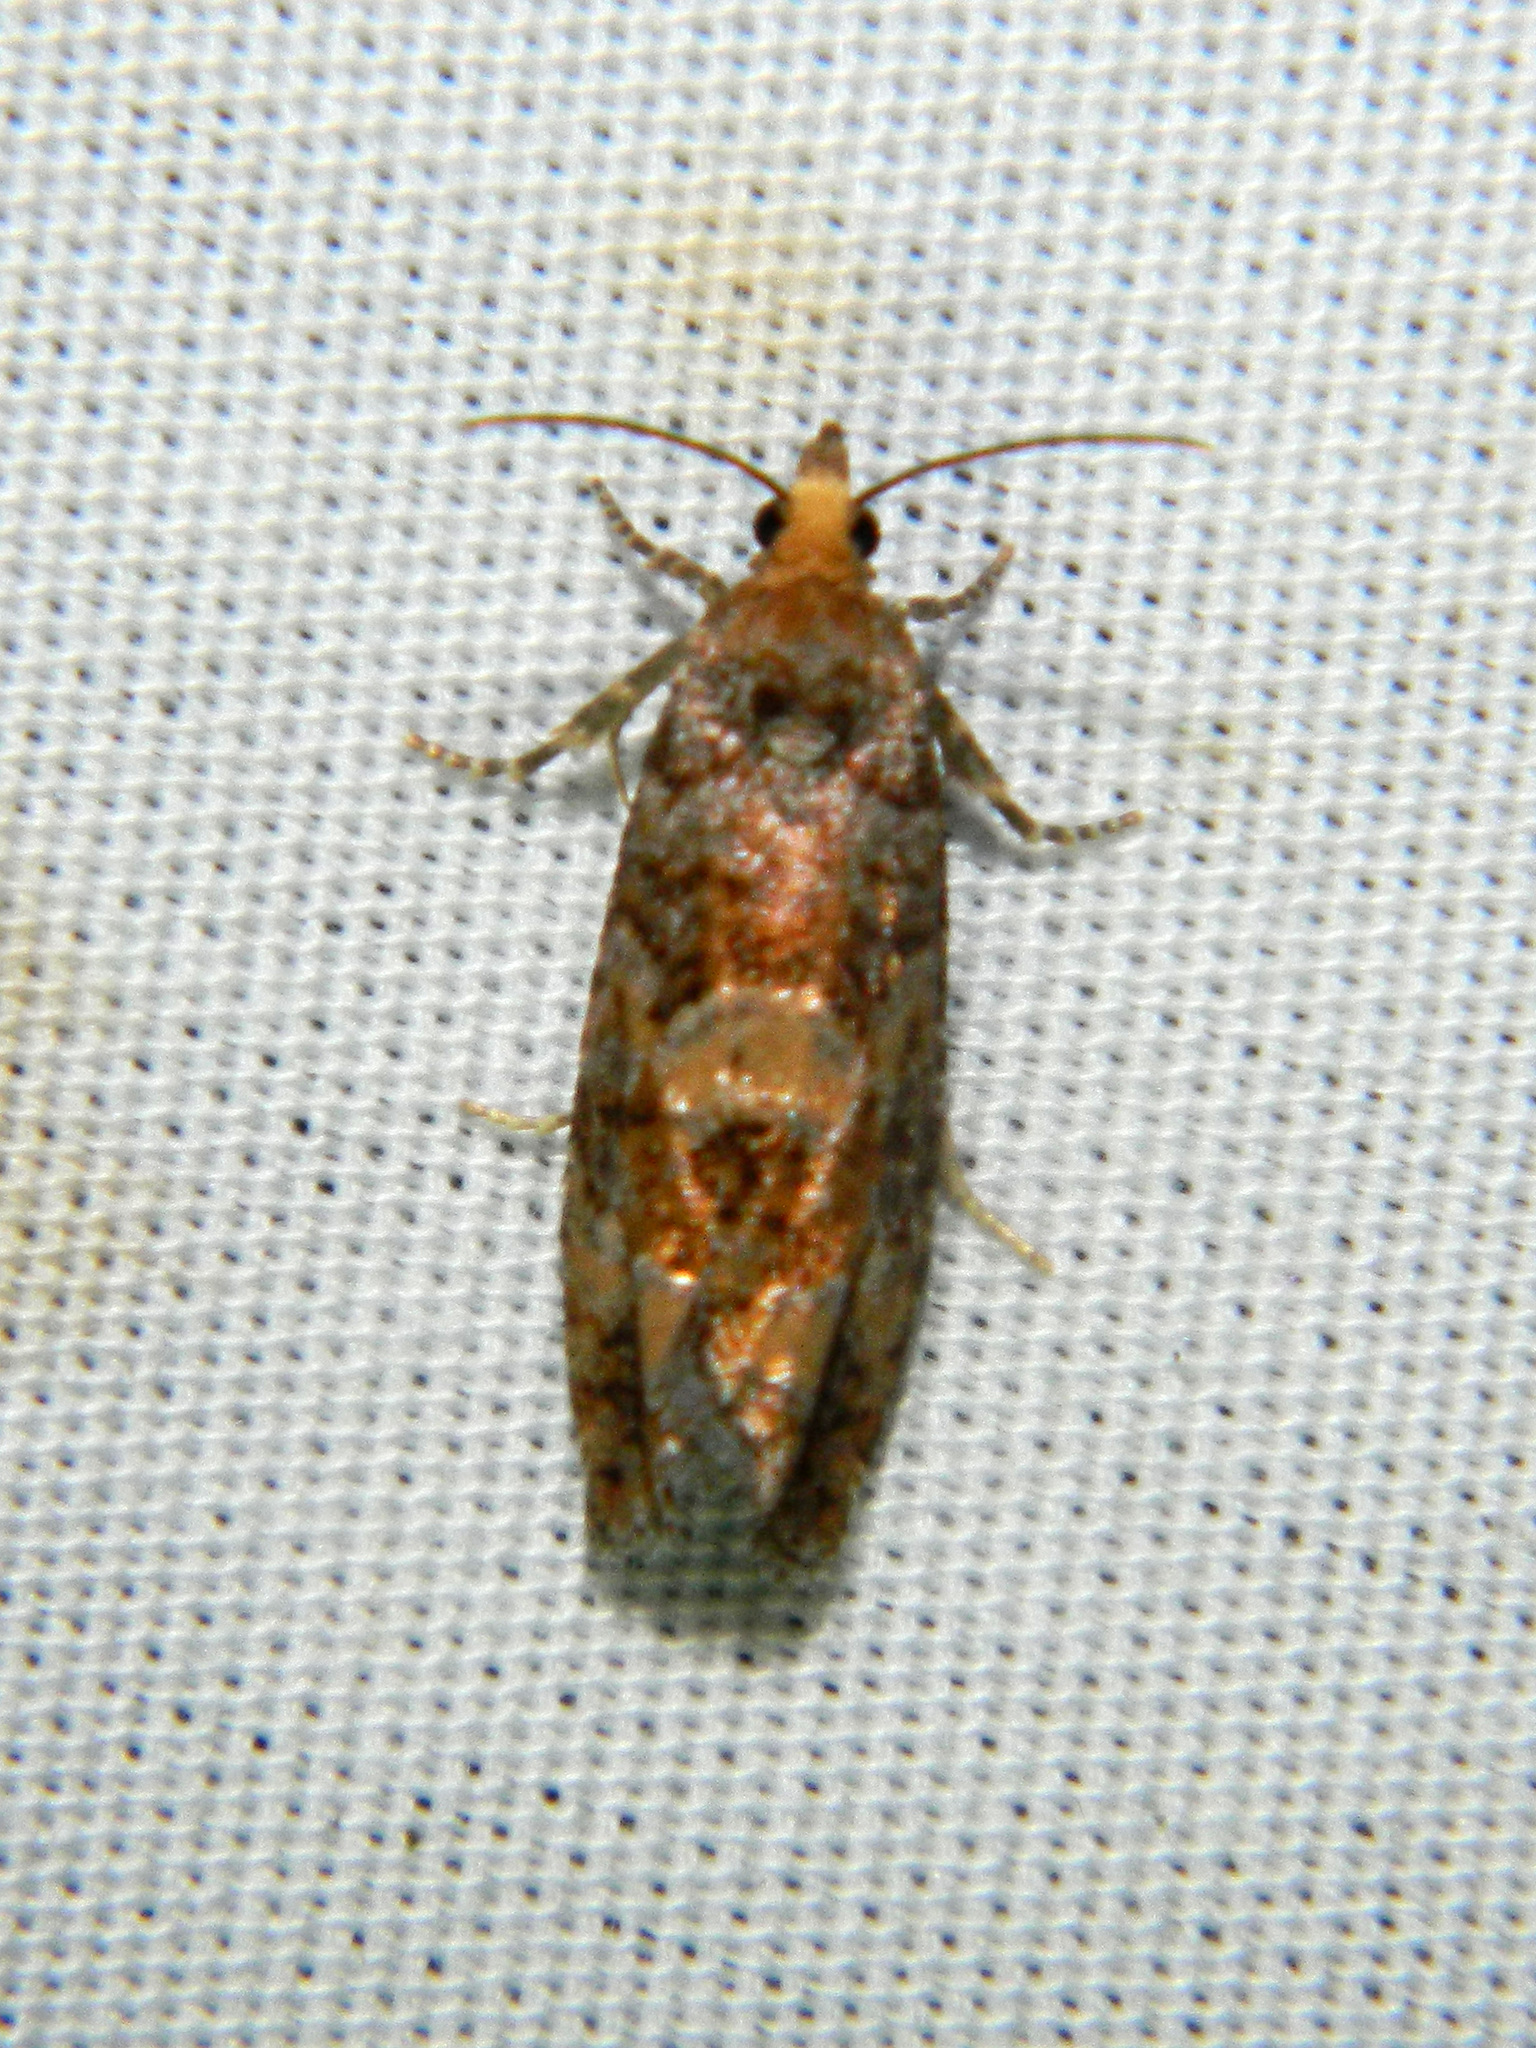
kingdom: Animalia
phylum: Arthropoda
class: Insecta
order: Lepidoptera
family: Tortricidae
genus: Eucopina
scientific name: Eucopina tocullionana
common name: White pinecone borer moth
